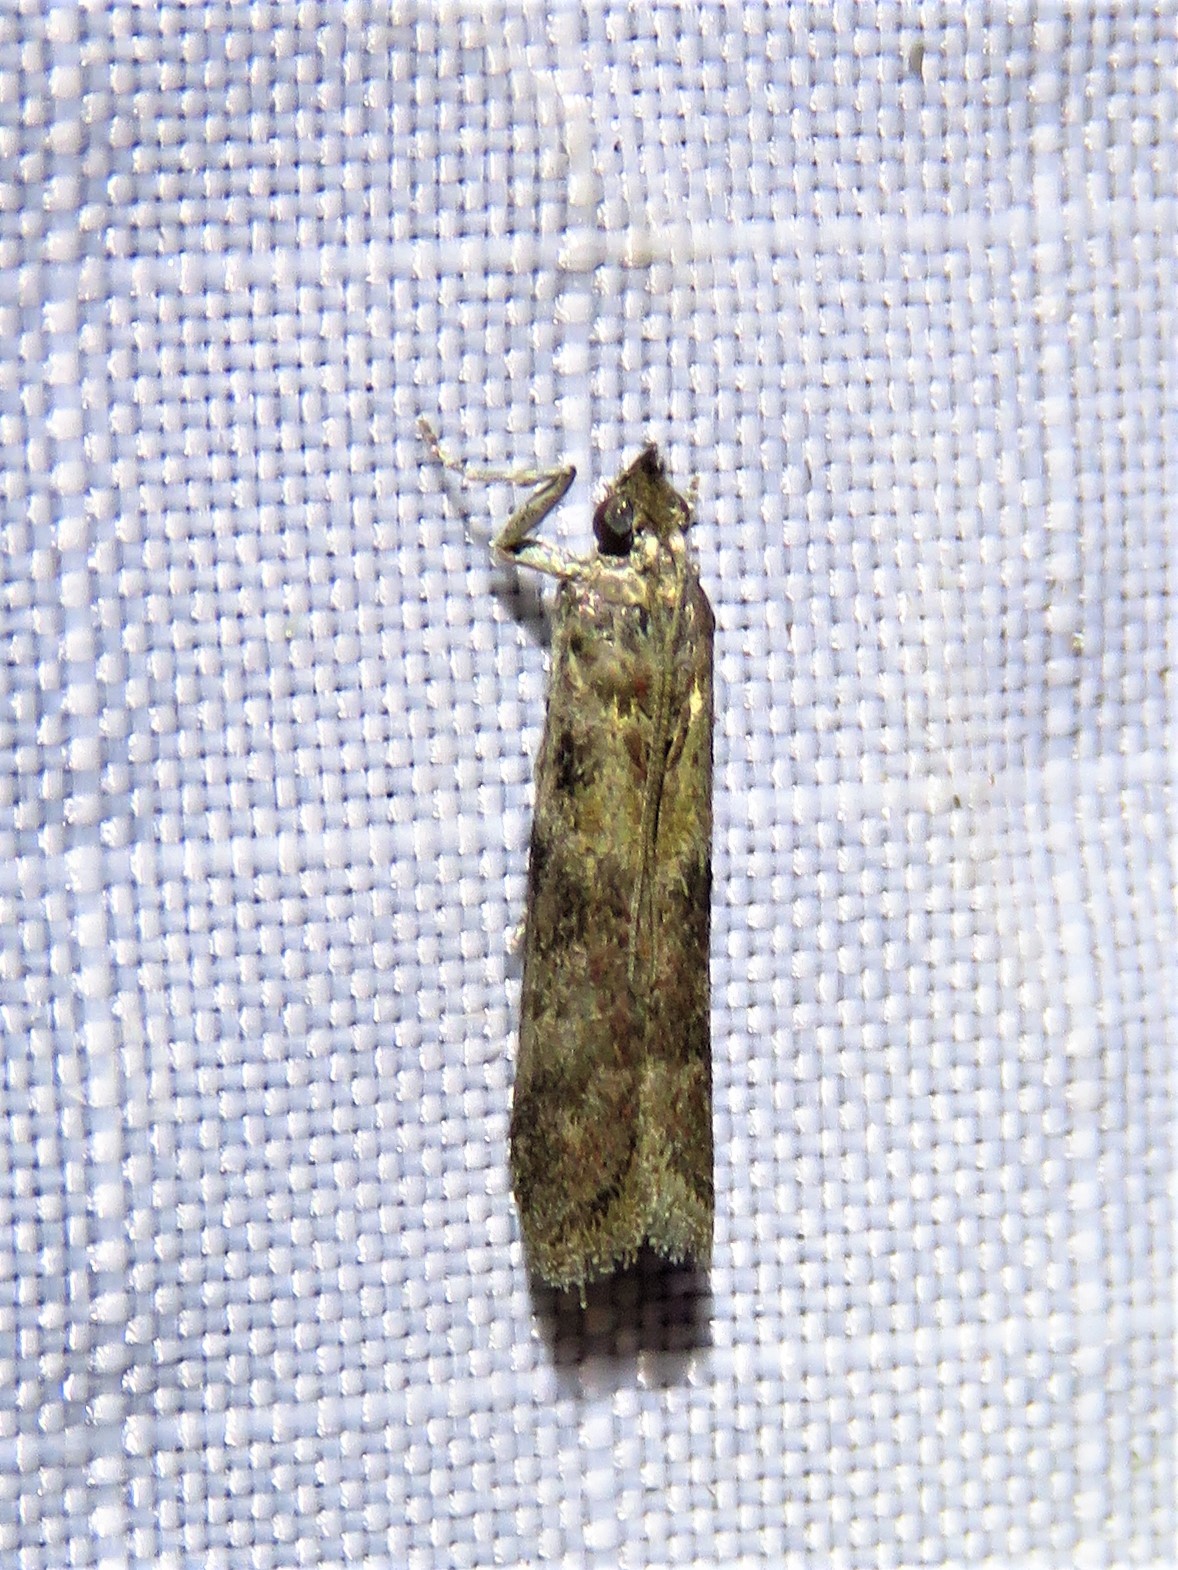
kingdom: Animalia
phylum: Arthropoda
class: Insecta
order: Lepidoptera
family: Pyralidae
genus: Ephestiodes
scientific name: Ephestiodes gilvescentella
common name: Moth
